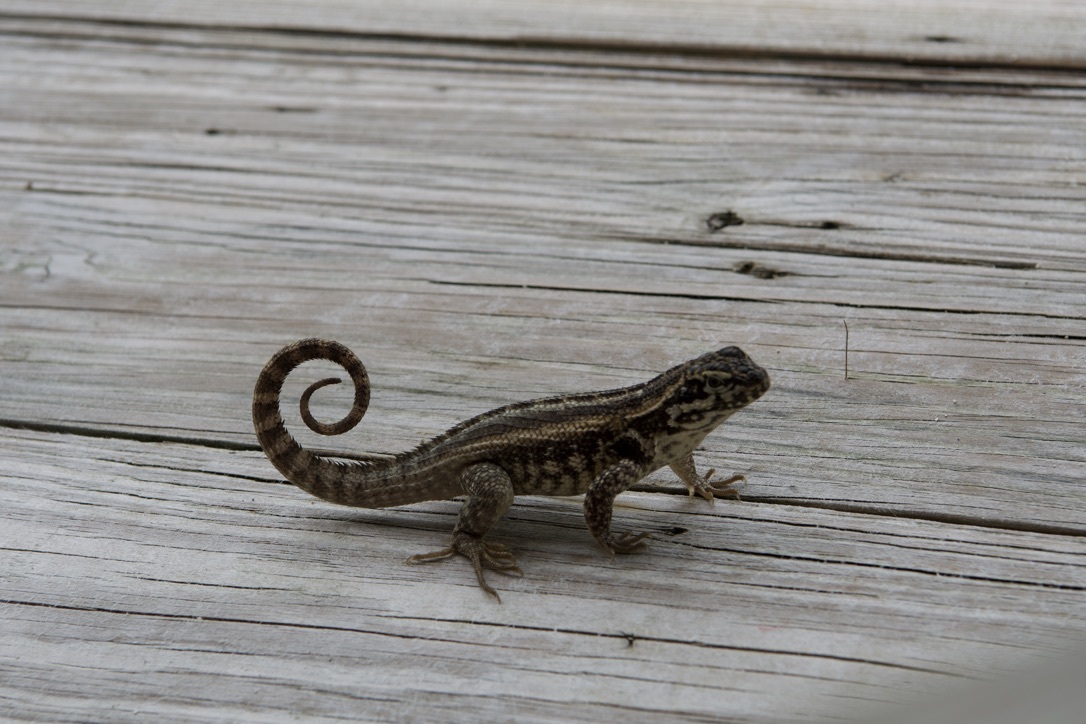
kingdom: Animalia
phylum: Chordata
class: Squamata
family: Leiocephalidae
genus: Leiocephalus
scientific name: Leiocephalus carinatus
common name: Northern curly-tailed lizard
